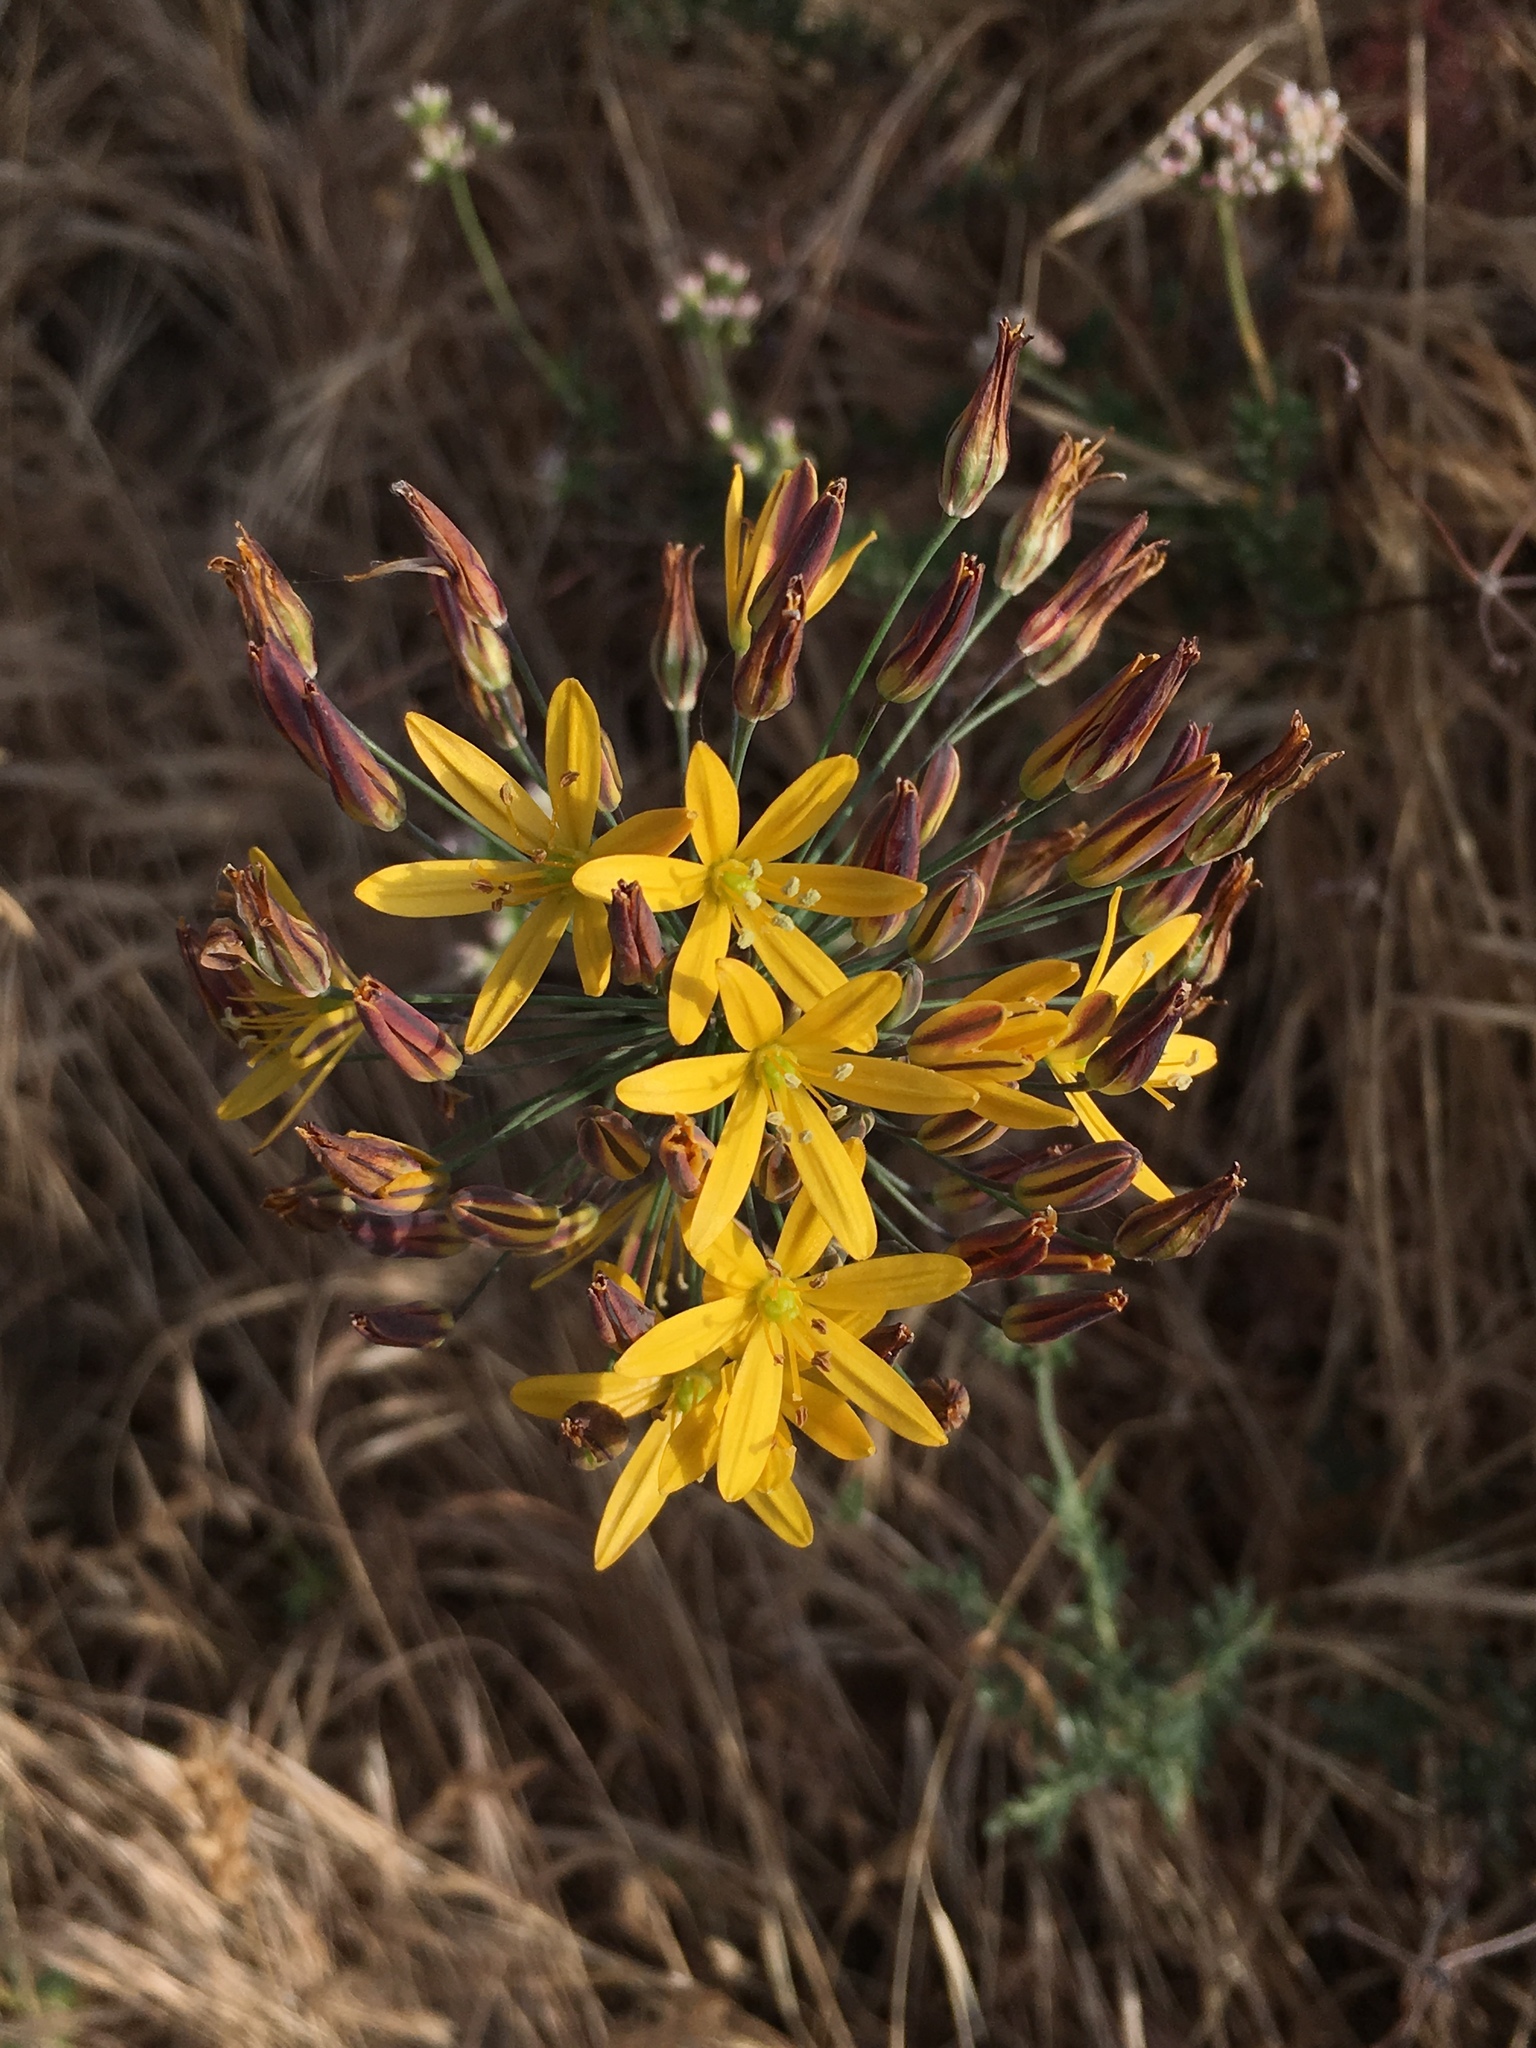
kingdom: Plantae
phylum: Tracheophyta
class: Liliopsida
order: Asparagales
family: Asparagaceae
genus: Bloomeria
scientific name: Bloomeria crocea
